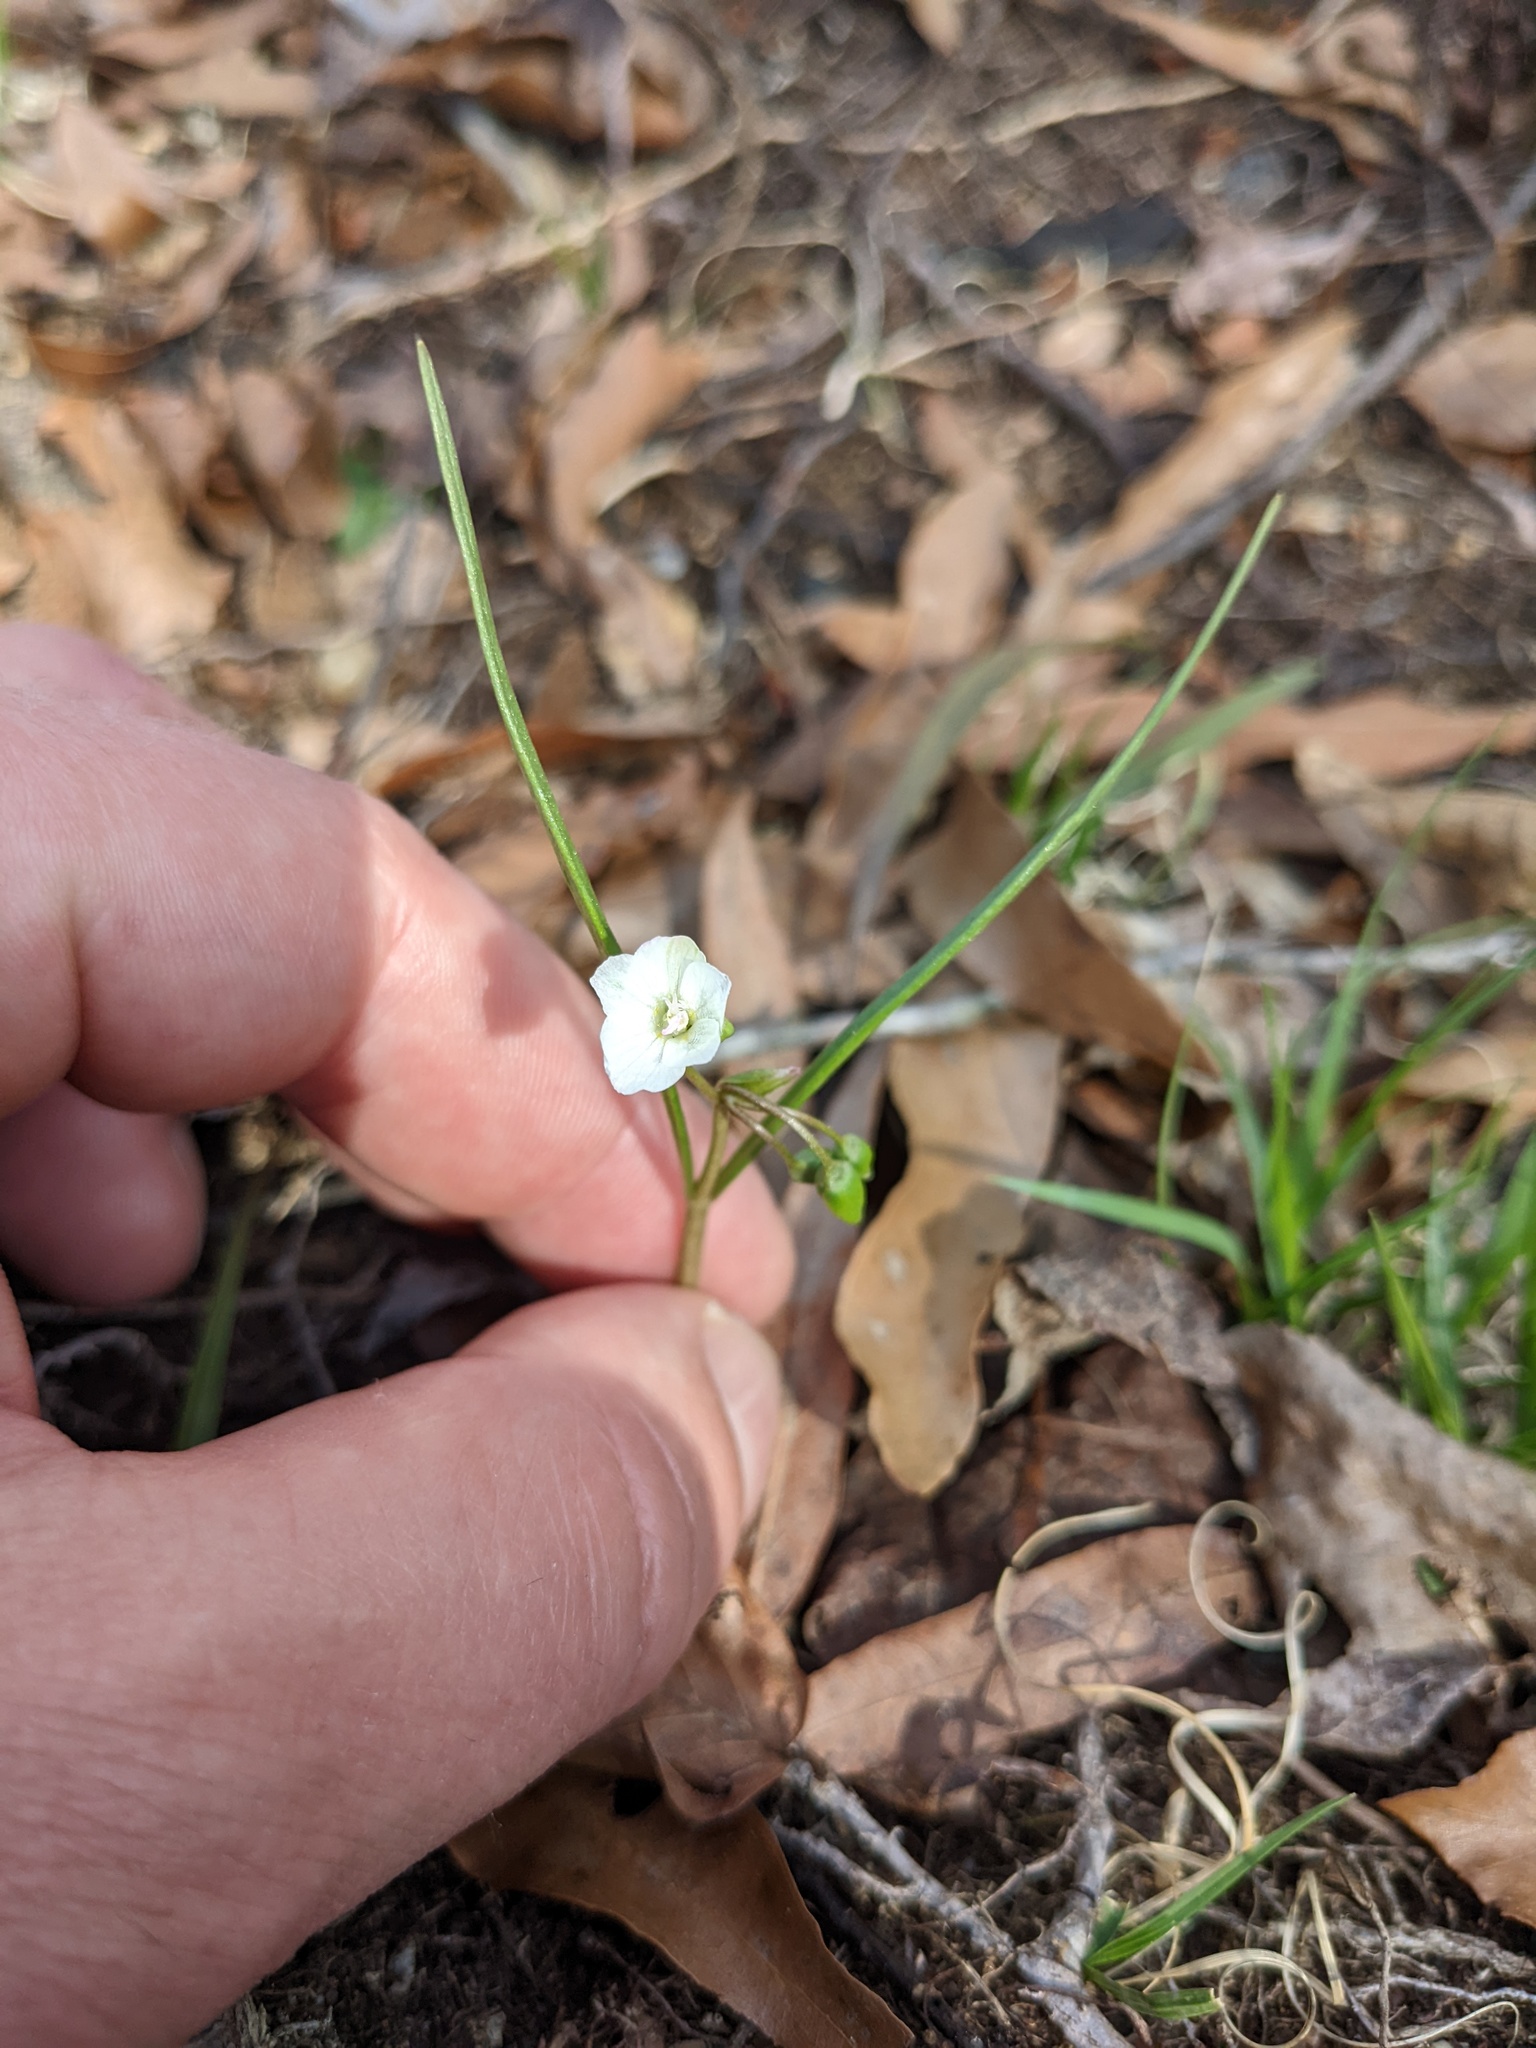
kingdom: Plantae
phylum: Tracheophyta
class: Magnoliopsida
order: Caryophyllales
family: Montiaceae
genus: Claytonia
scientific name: Claytonia virginica
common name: Virginia springbeauty
